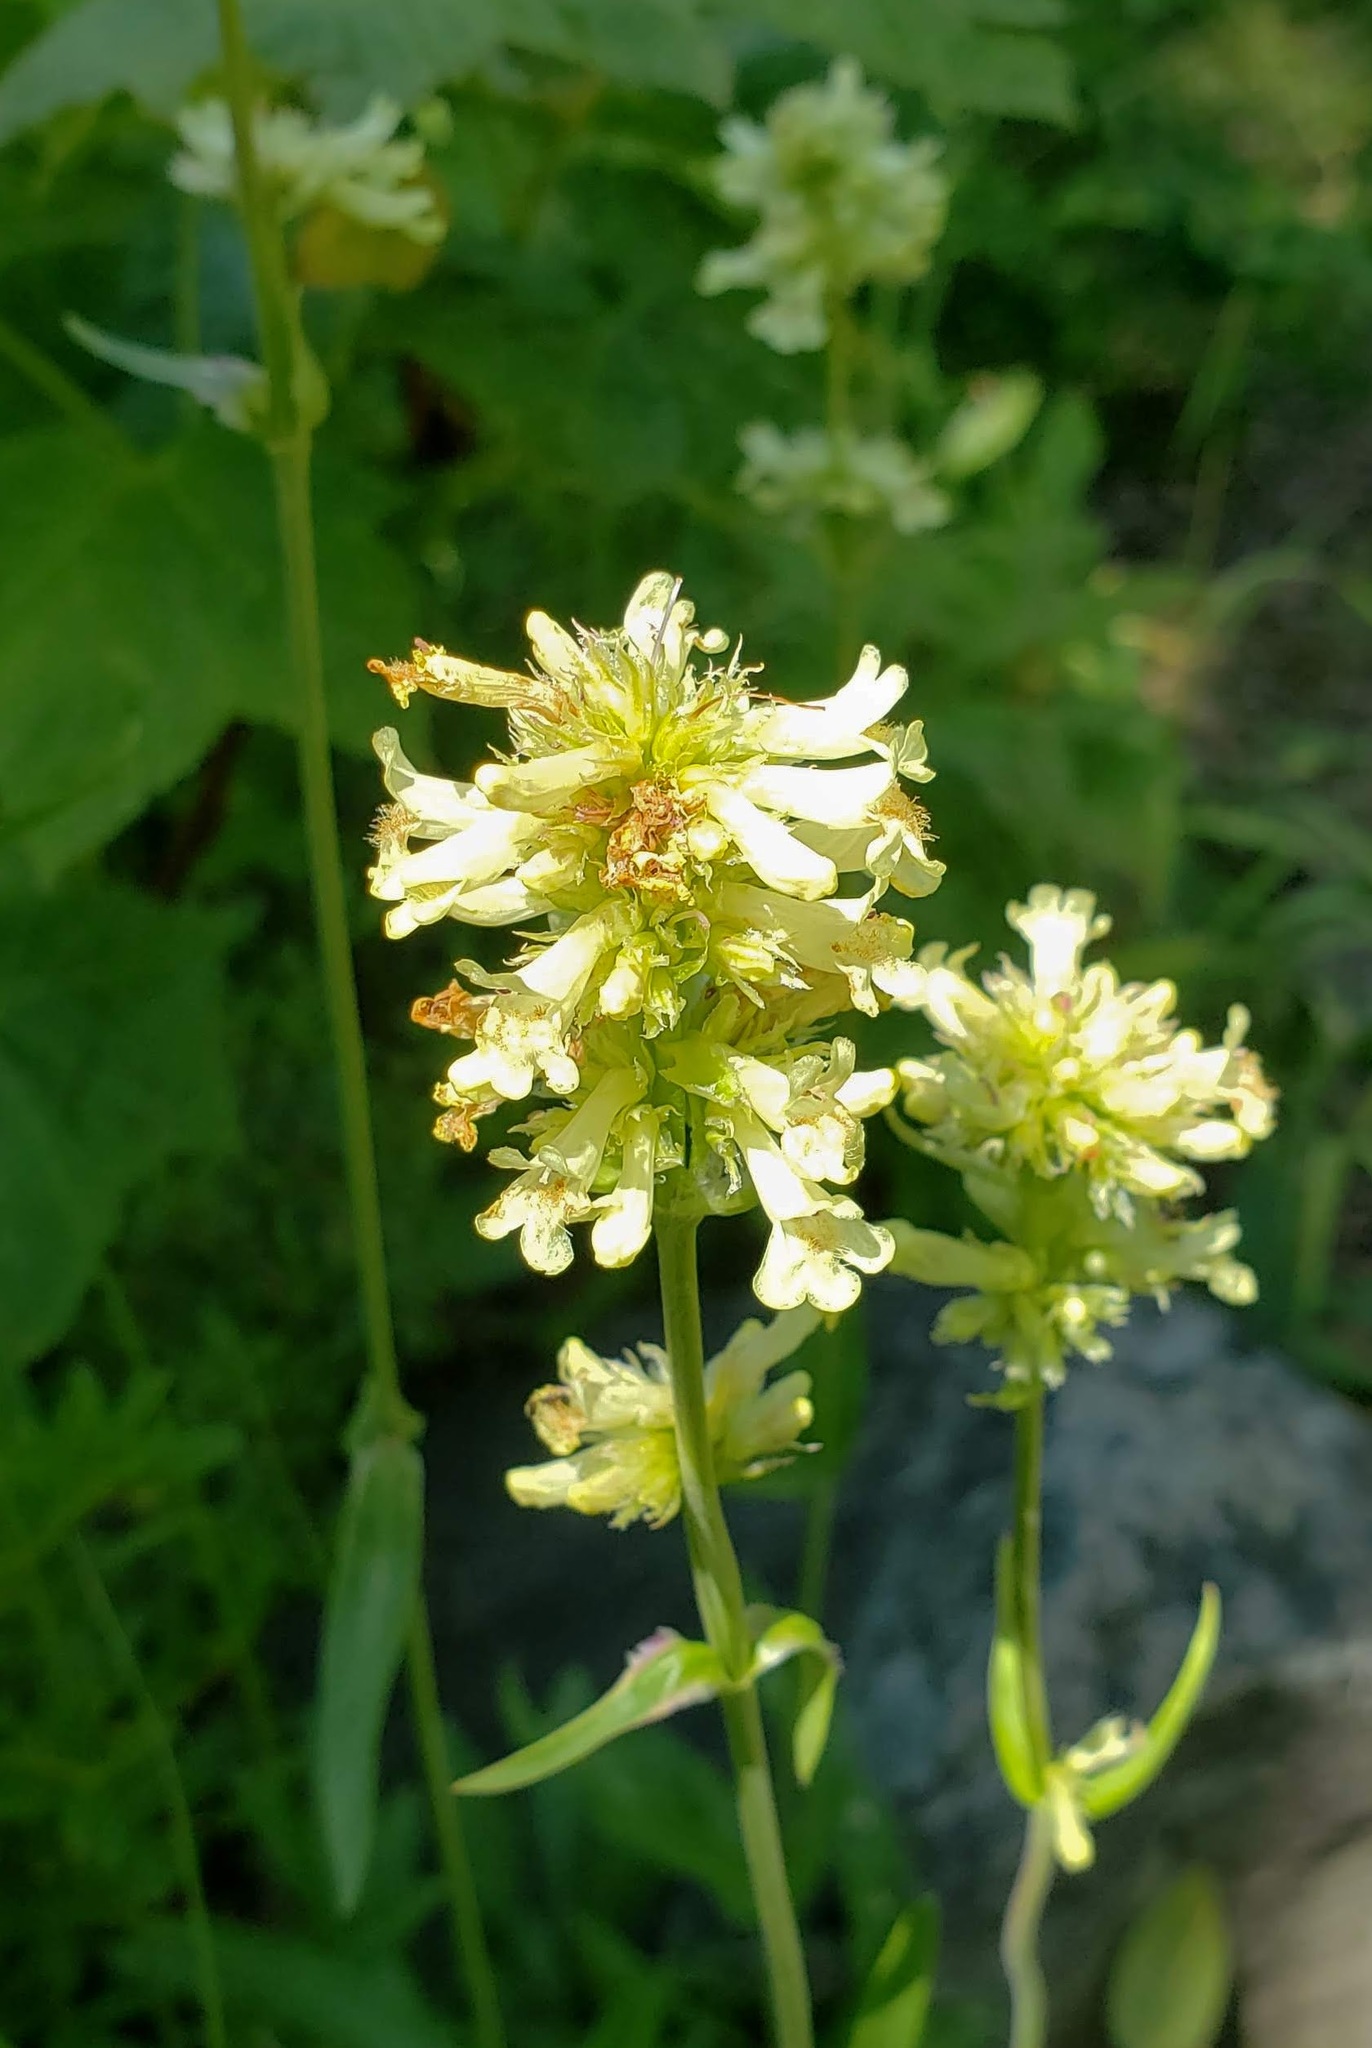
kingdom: Plantae
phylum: Tracheophyta
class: Magnoliopsida
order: Lamiales
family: Plantaginaceae
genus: Penstemon
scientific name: Penstemon confertus
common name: Lesser yellow beardtongue
